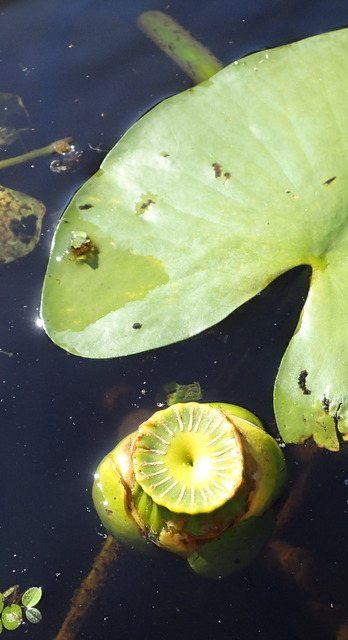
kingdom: Plantae
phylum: Tracheophyta
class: Magnoliopsida
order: Nymphaeales
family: Nymphaeaceae
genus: Nuphar
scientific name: Nuphar advena
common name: Spatter-dock
